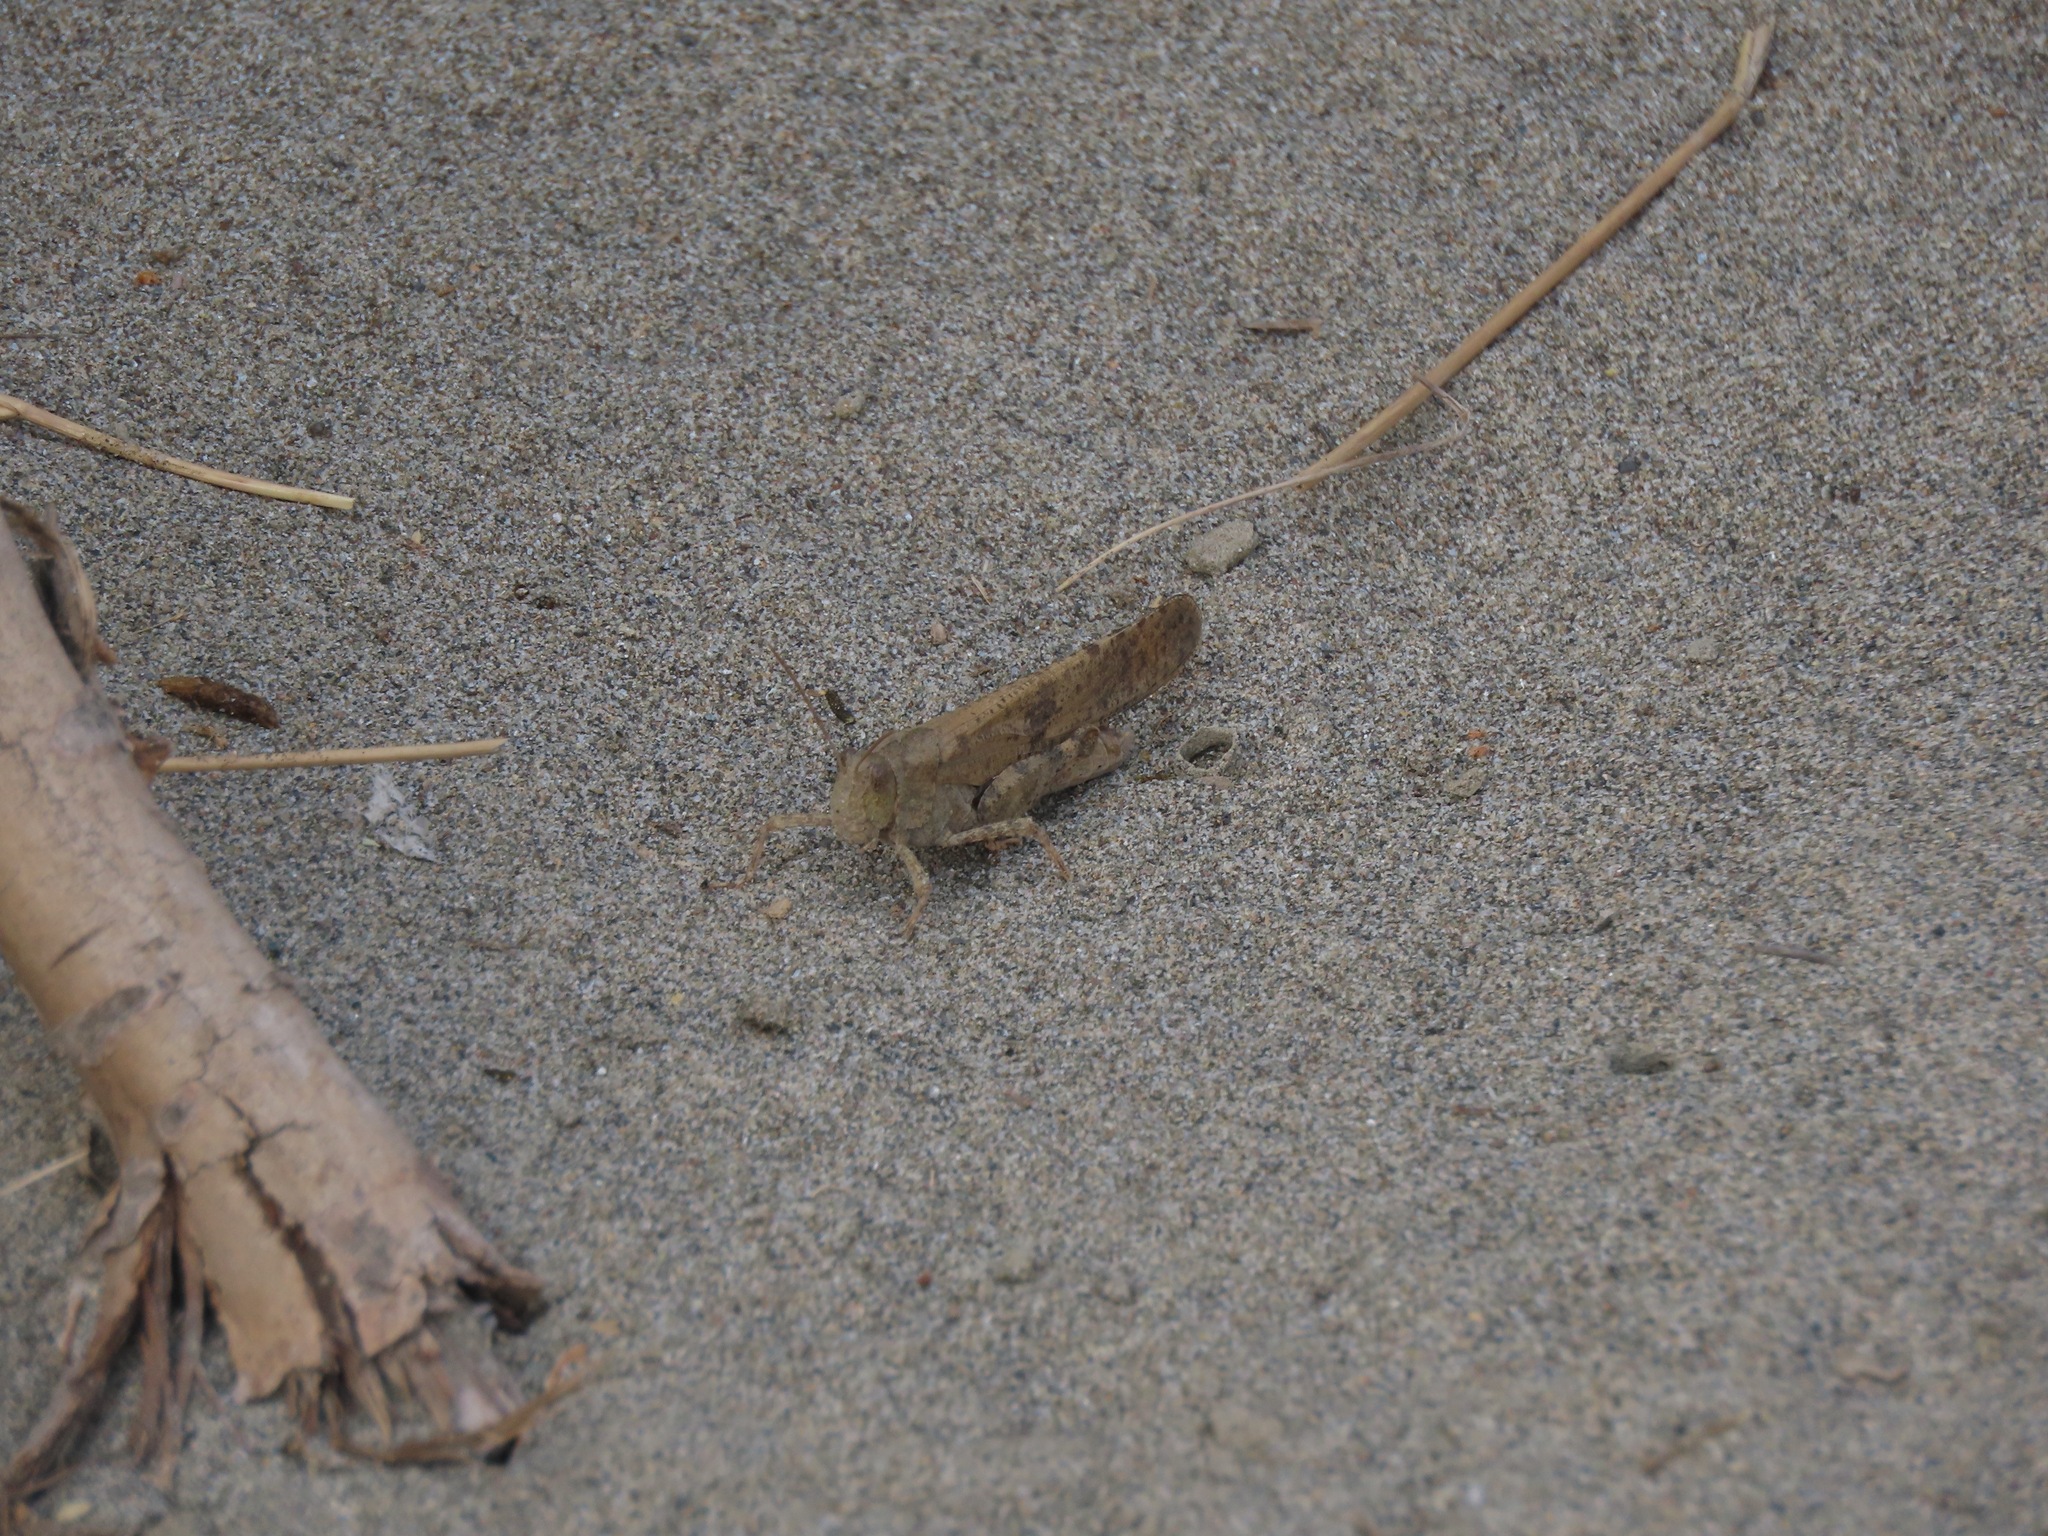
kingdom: Animalia
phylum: Arthropoda
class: Insecta
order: Orthoptera
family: Acrididae
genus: Dissosteira
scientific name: Dissosteira carolina
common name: Carolina grasshopper
